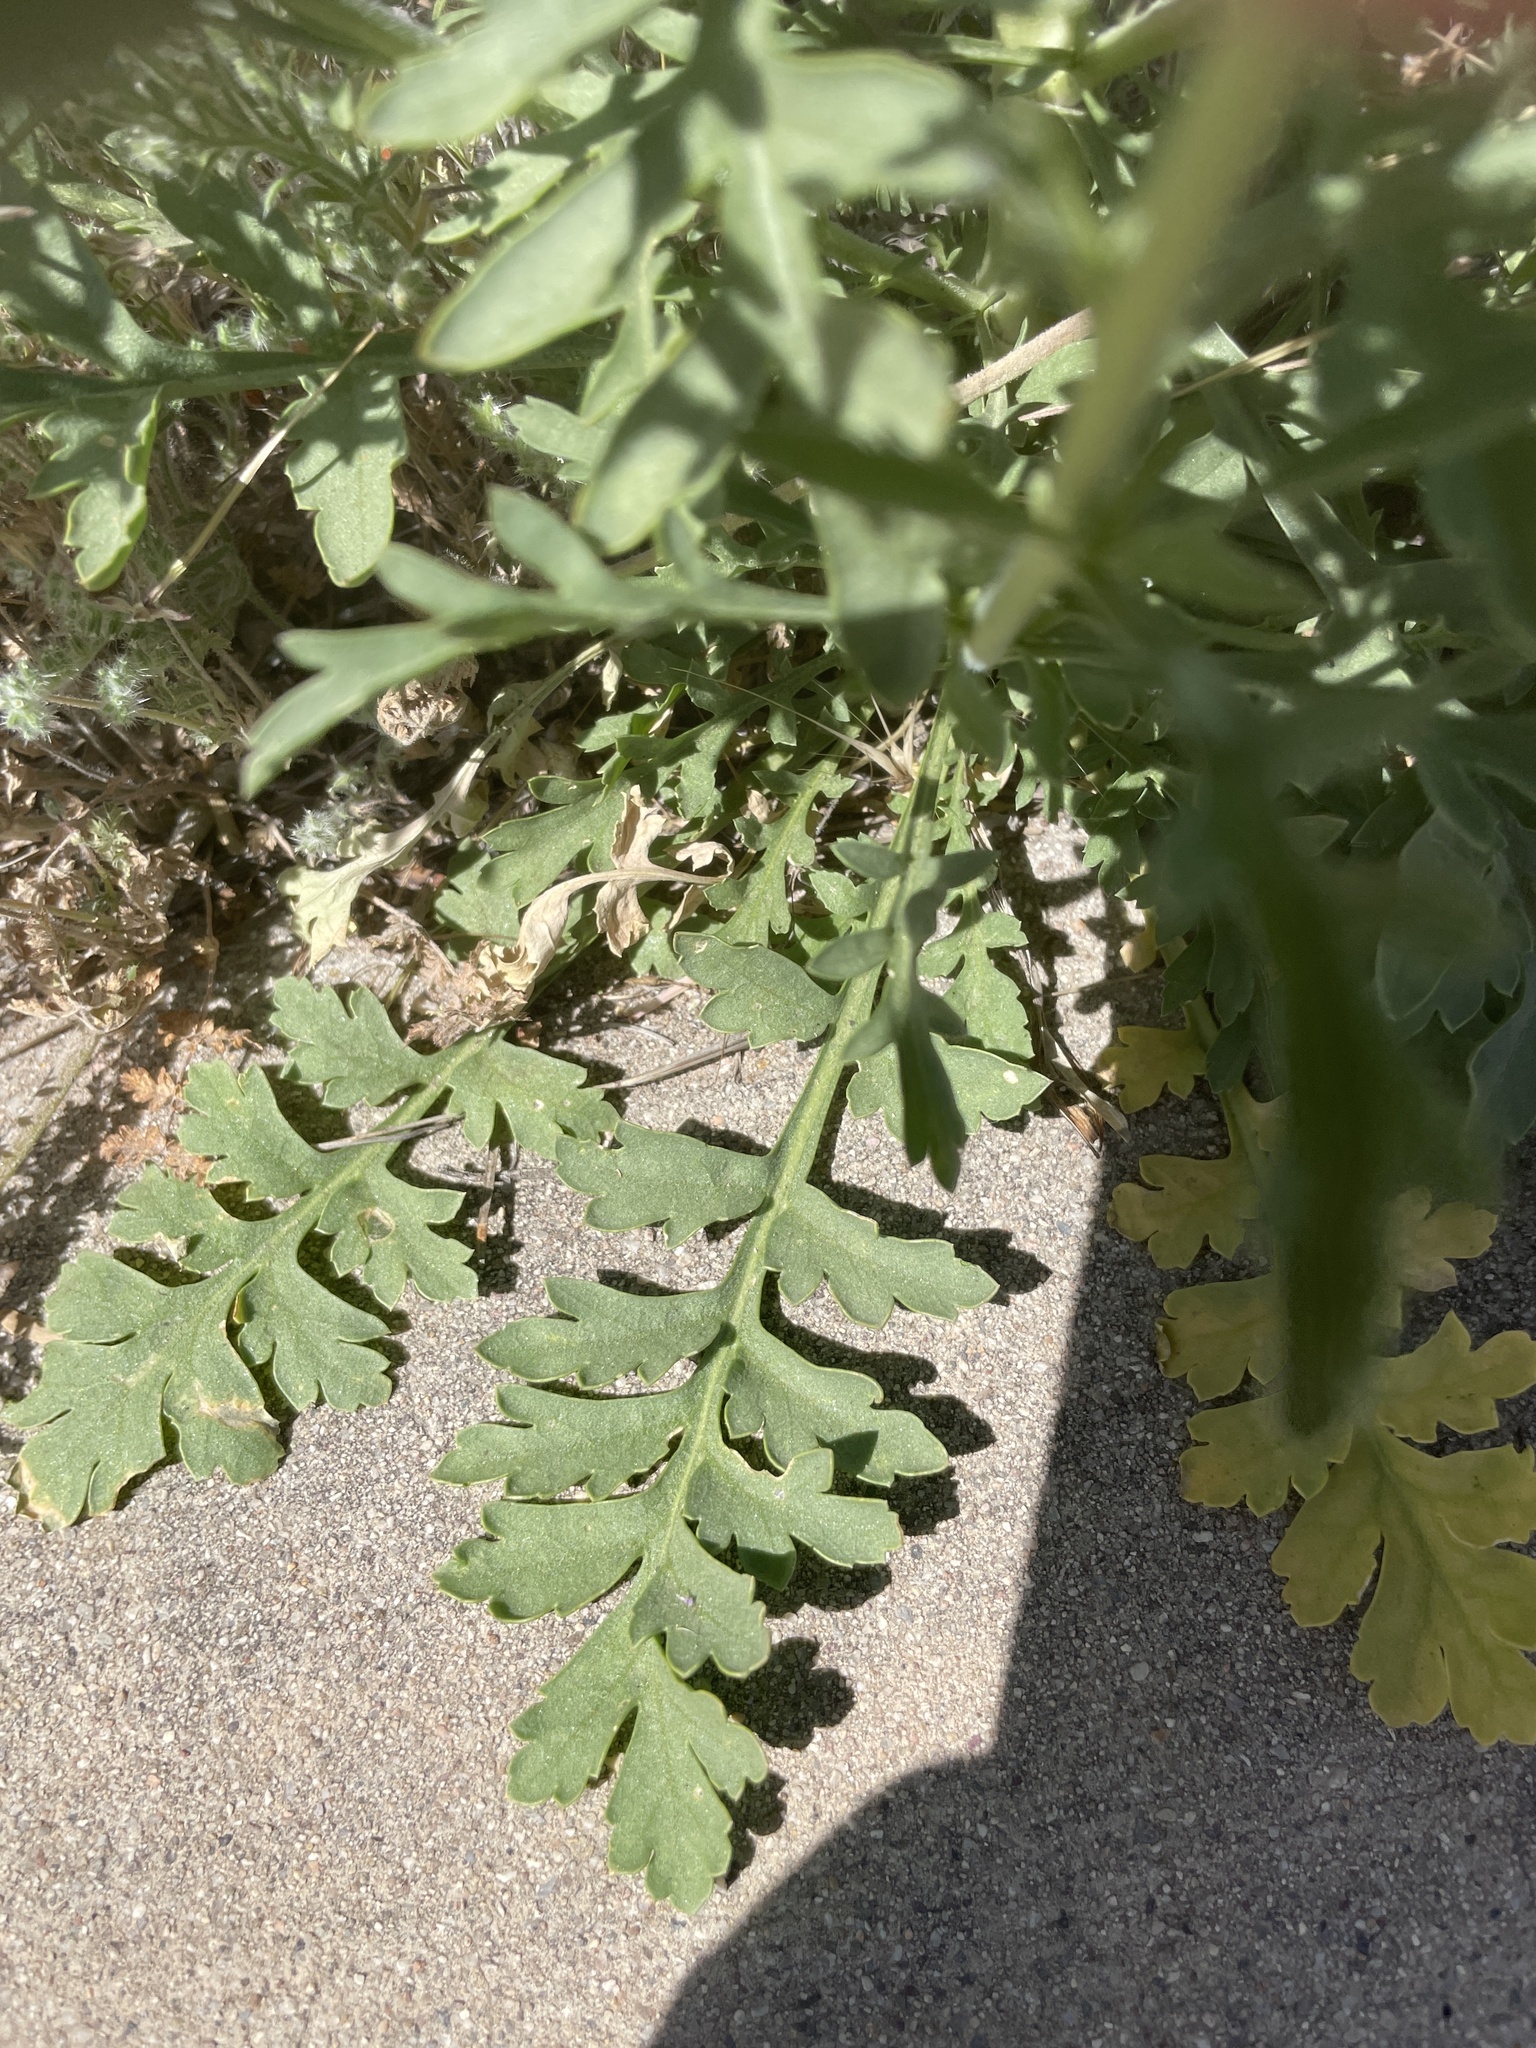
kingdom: Plantae
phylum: Tracheophyta
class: Magnoliopsida
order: Brassicales
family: Brassicaceae
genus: Lepidium
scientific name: Lepidium thurberi
